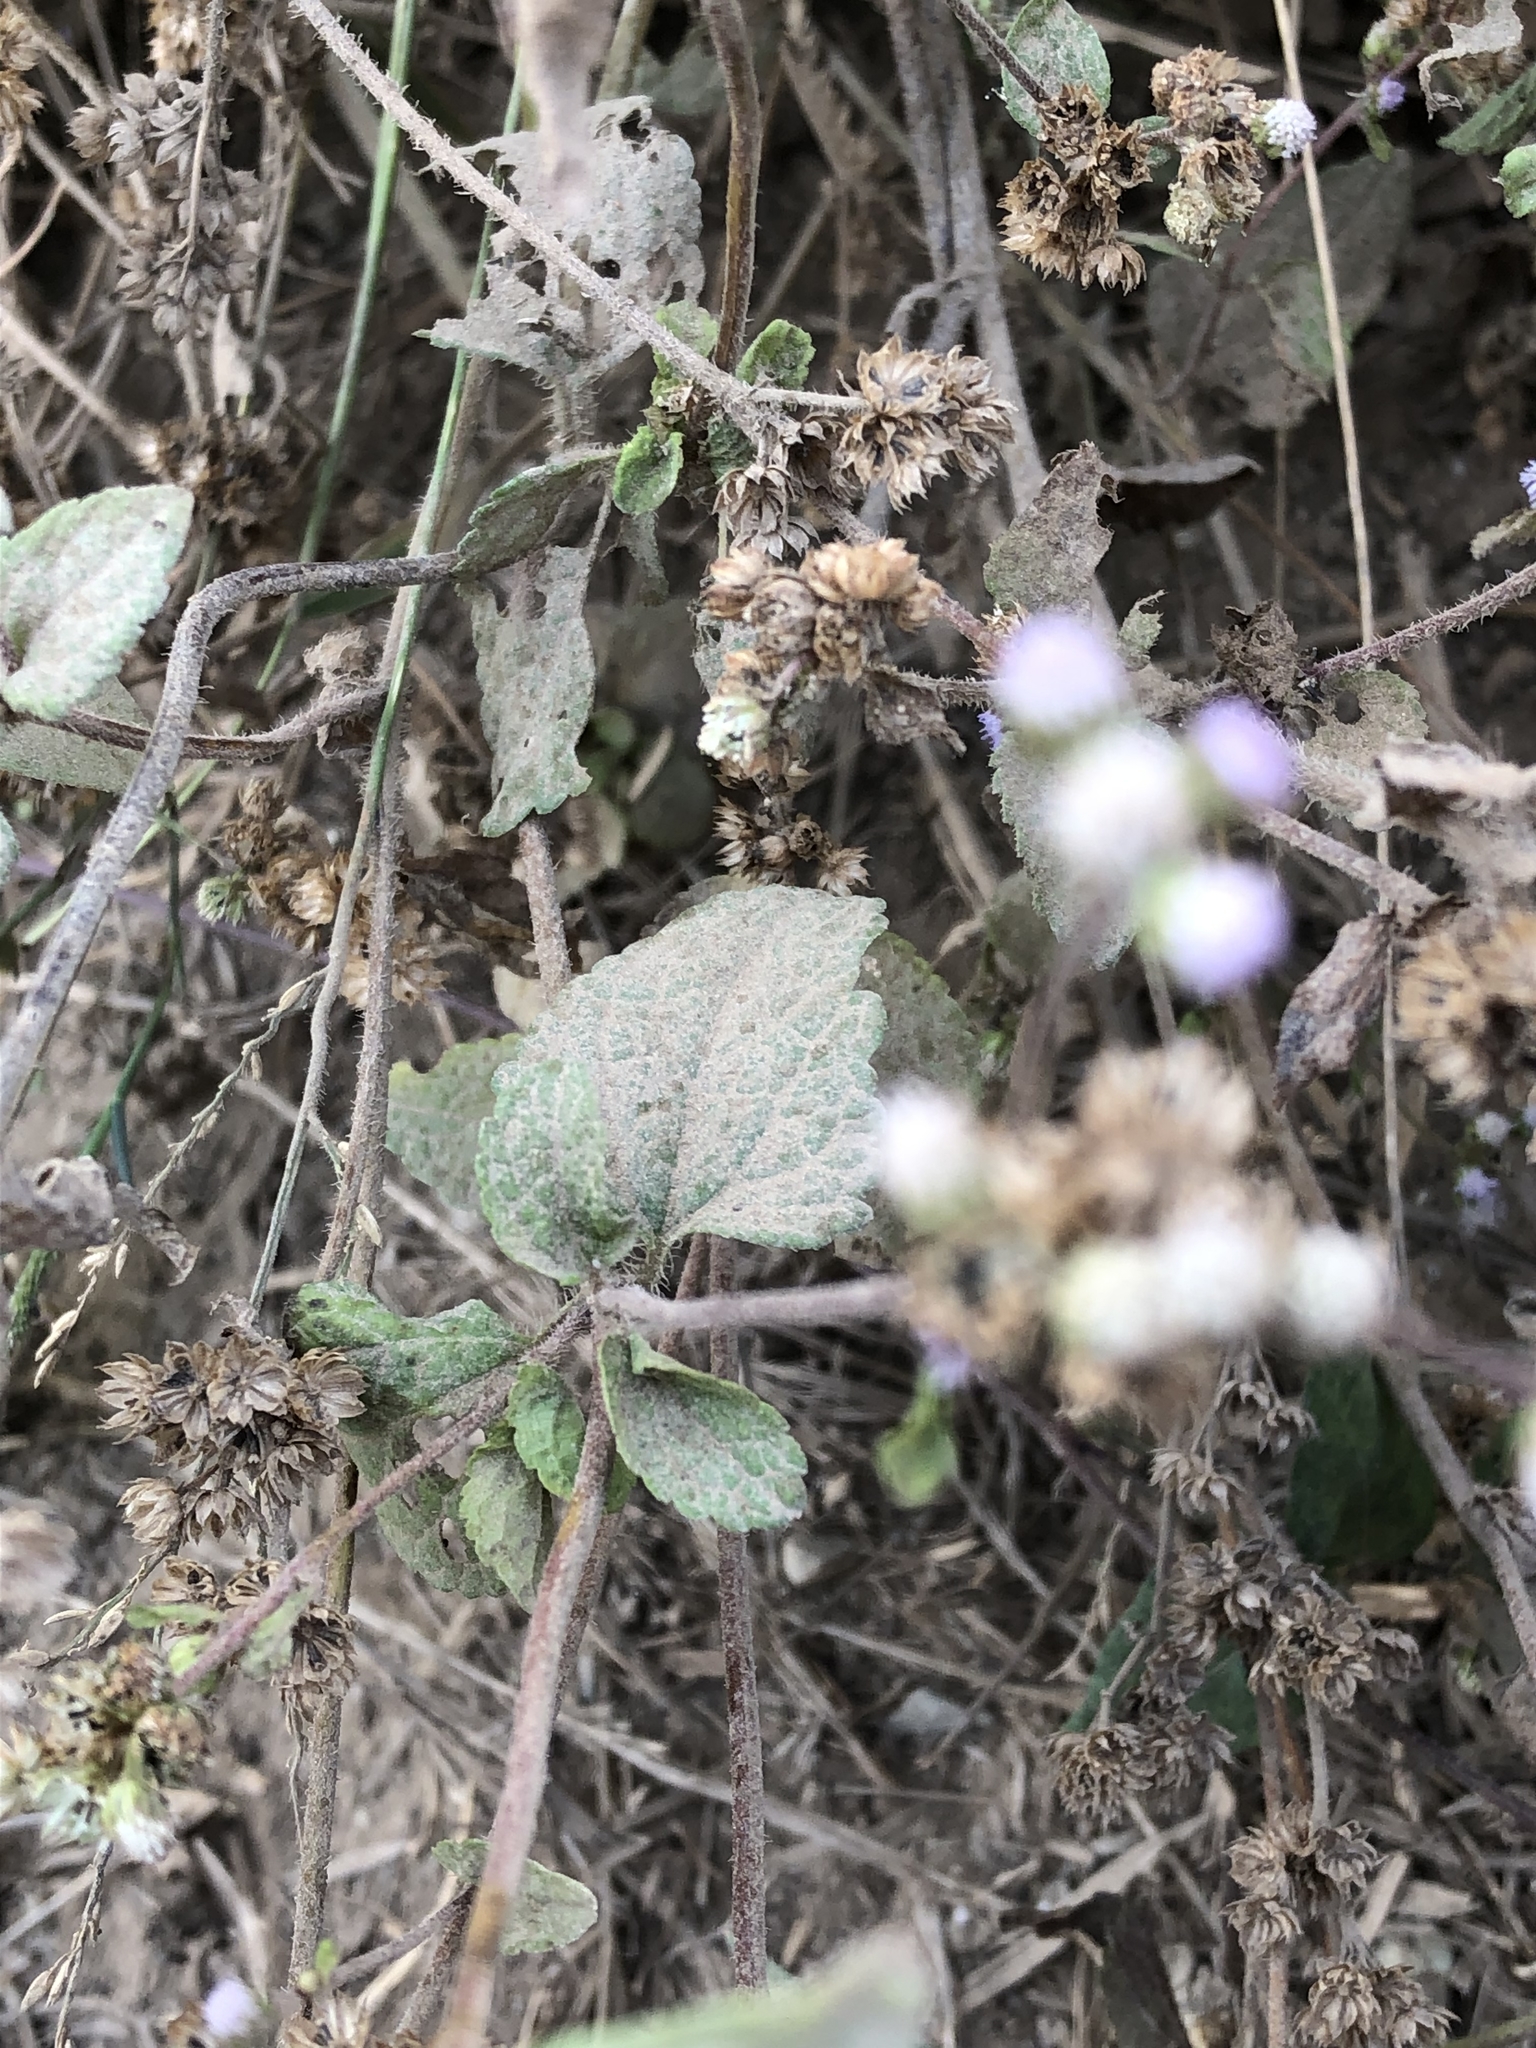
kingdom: Plantae
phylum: Tracheophyta
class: Magnoliopsida
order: Asterales
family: Asteraceae
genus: Ageratum
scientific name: Ageratum conyzoides
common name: Tropical whiteweed
